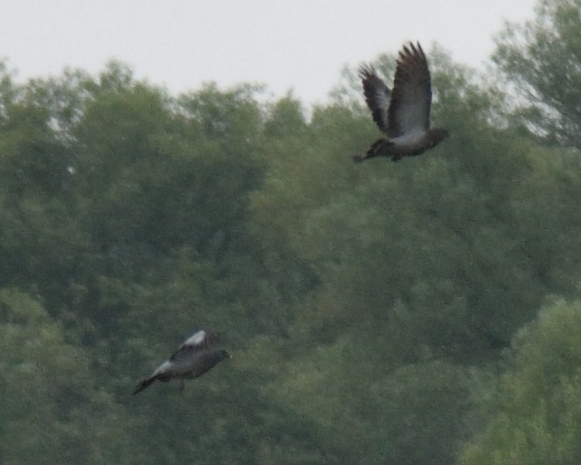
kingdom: Animalia
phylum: Chordata
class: Aves
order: Columbiformes
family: Columbidae
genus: Columba
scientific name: Columba oenas
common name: Stock dove
